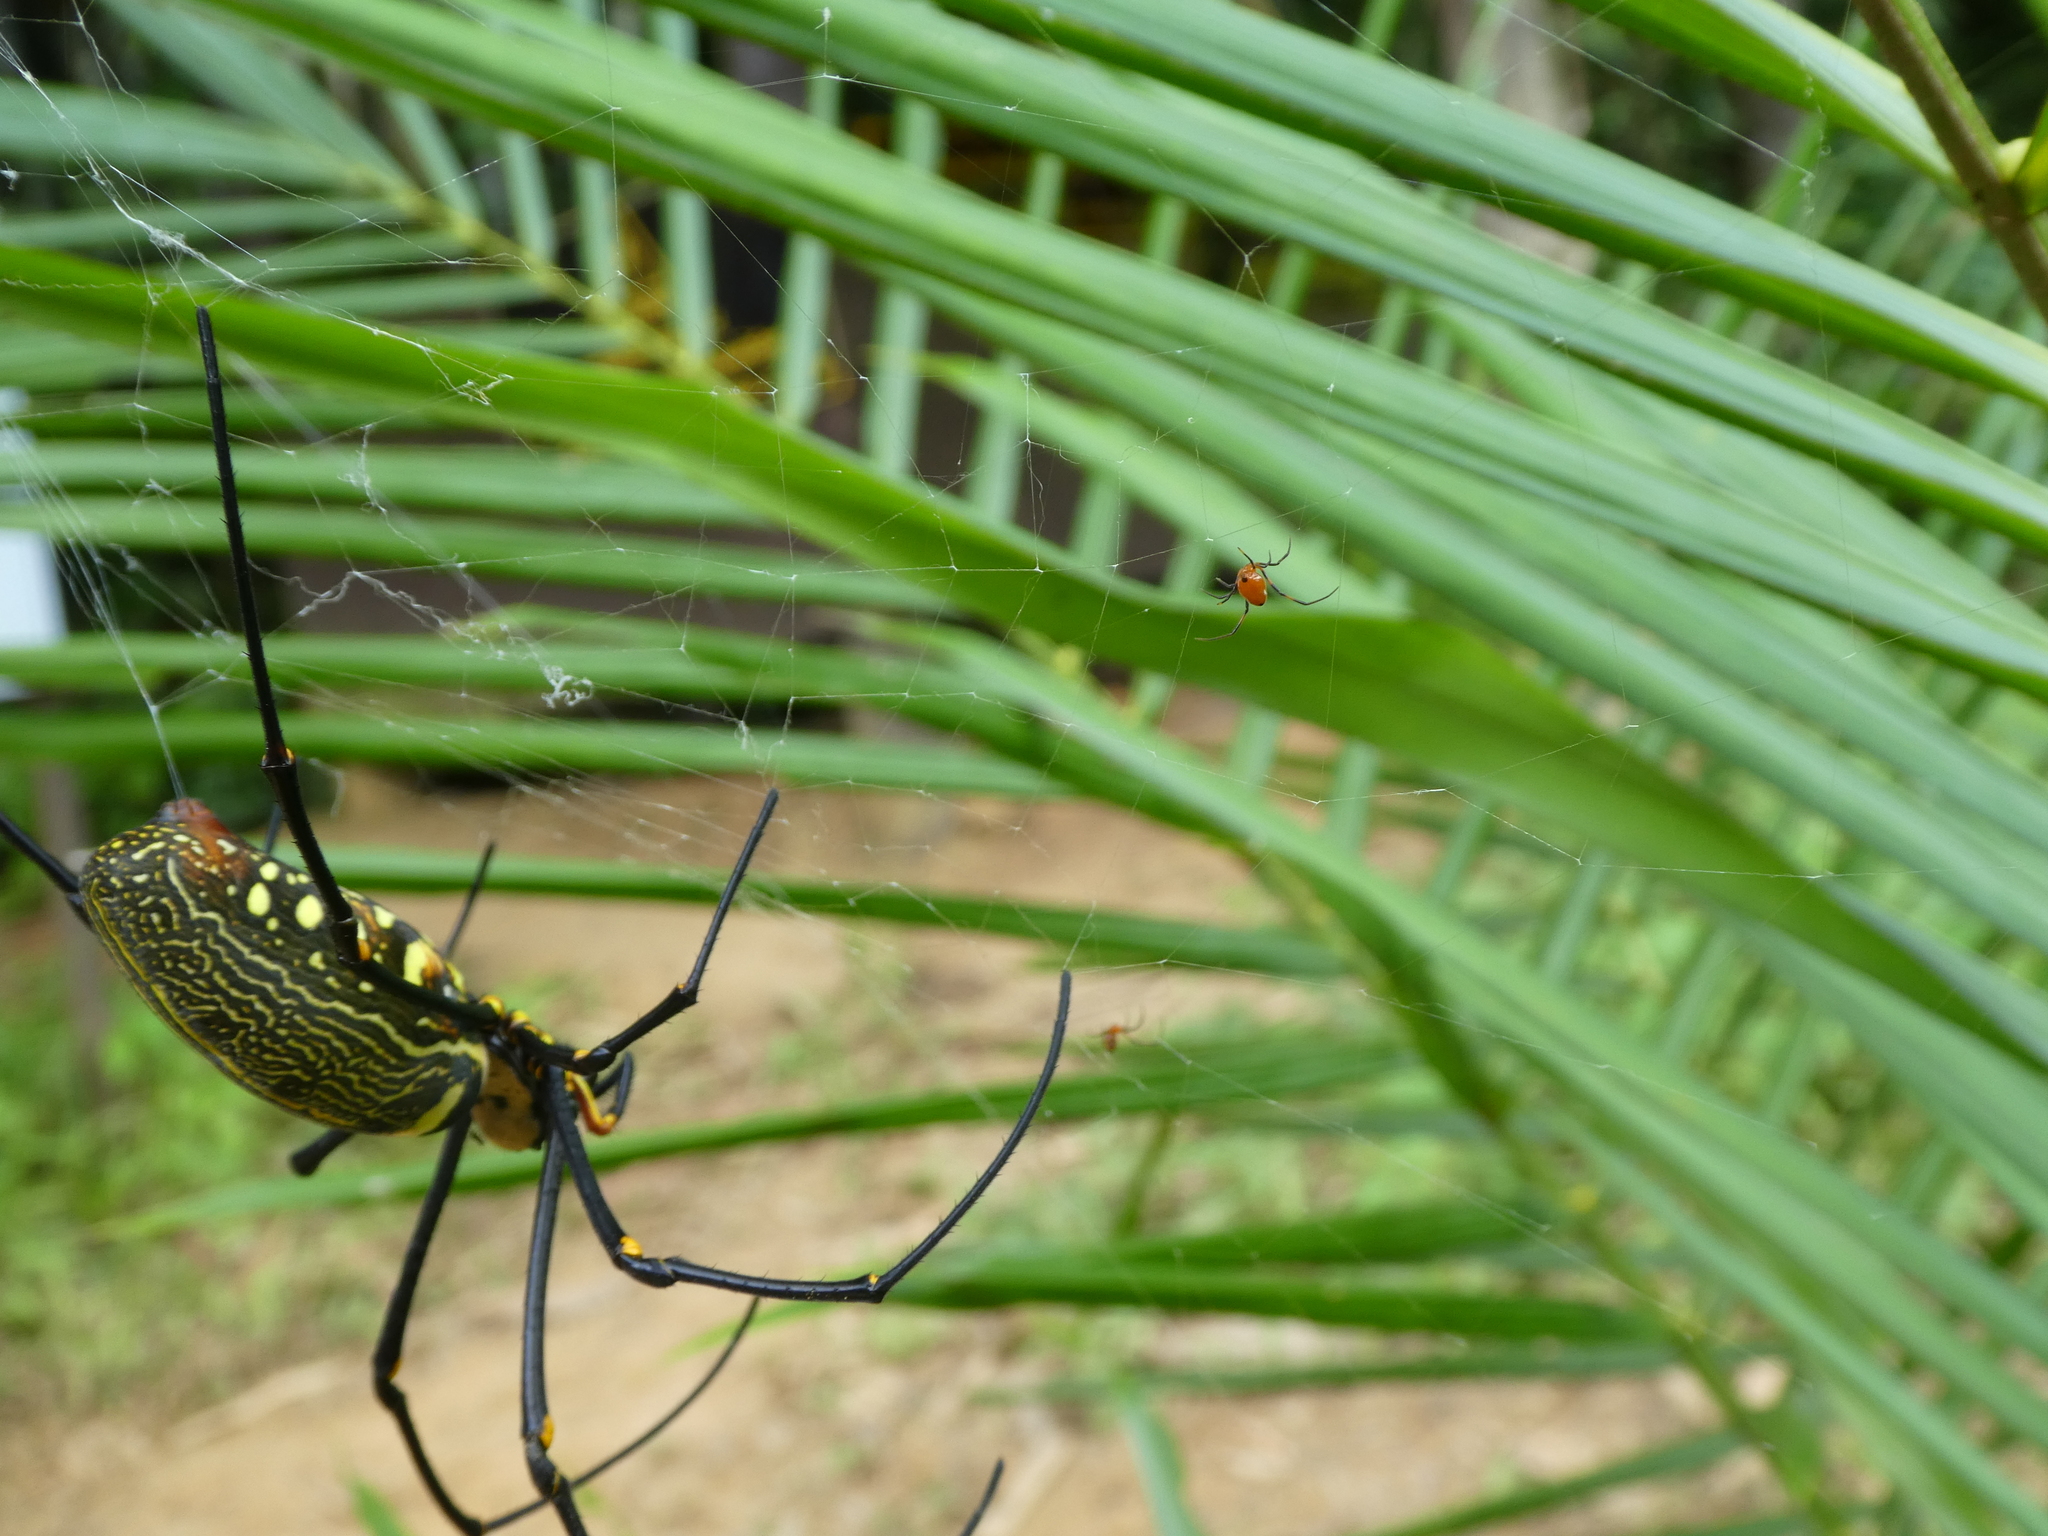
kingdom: Animalia
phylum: Arthropoda
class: Arachnida
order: Araneae
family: Araneidae
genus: Nephila
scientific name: Nephila pilipes
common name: Giant golden orb weaver
